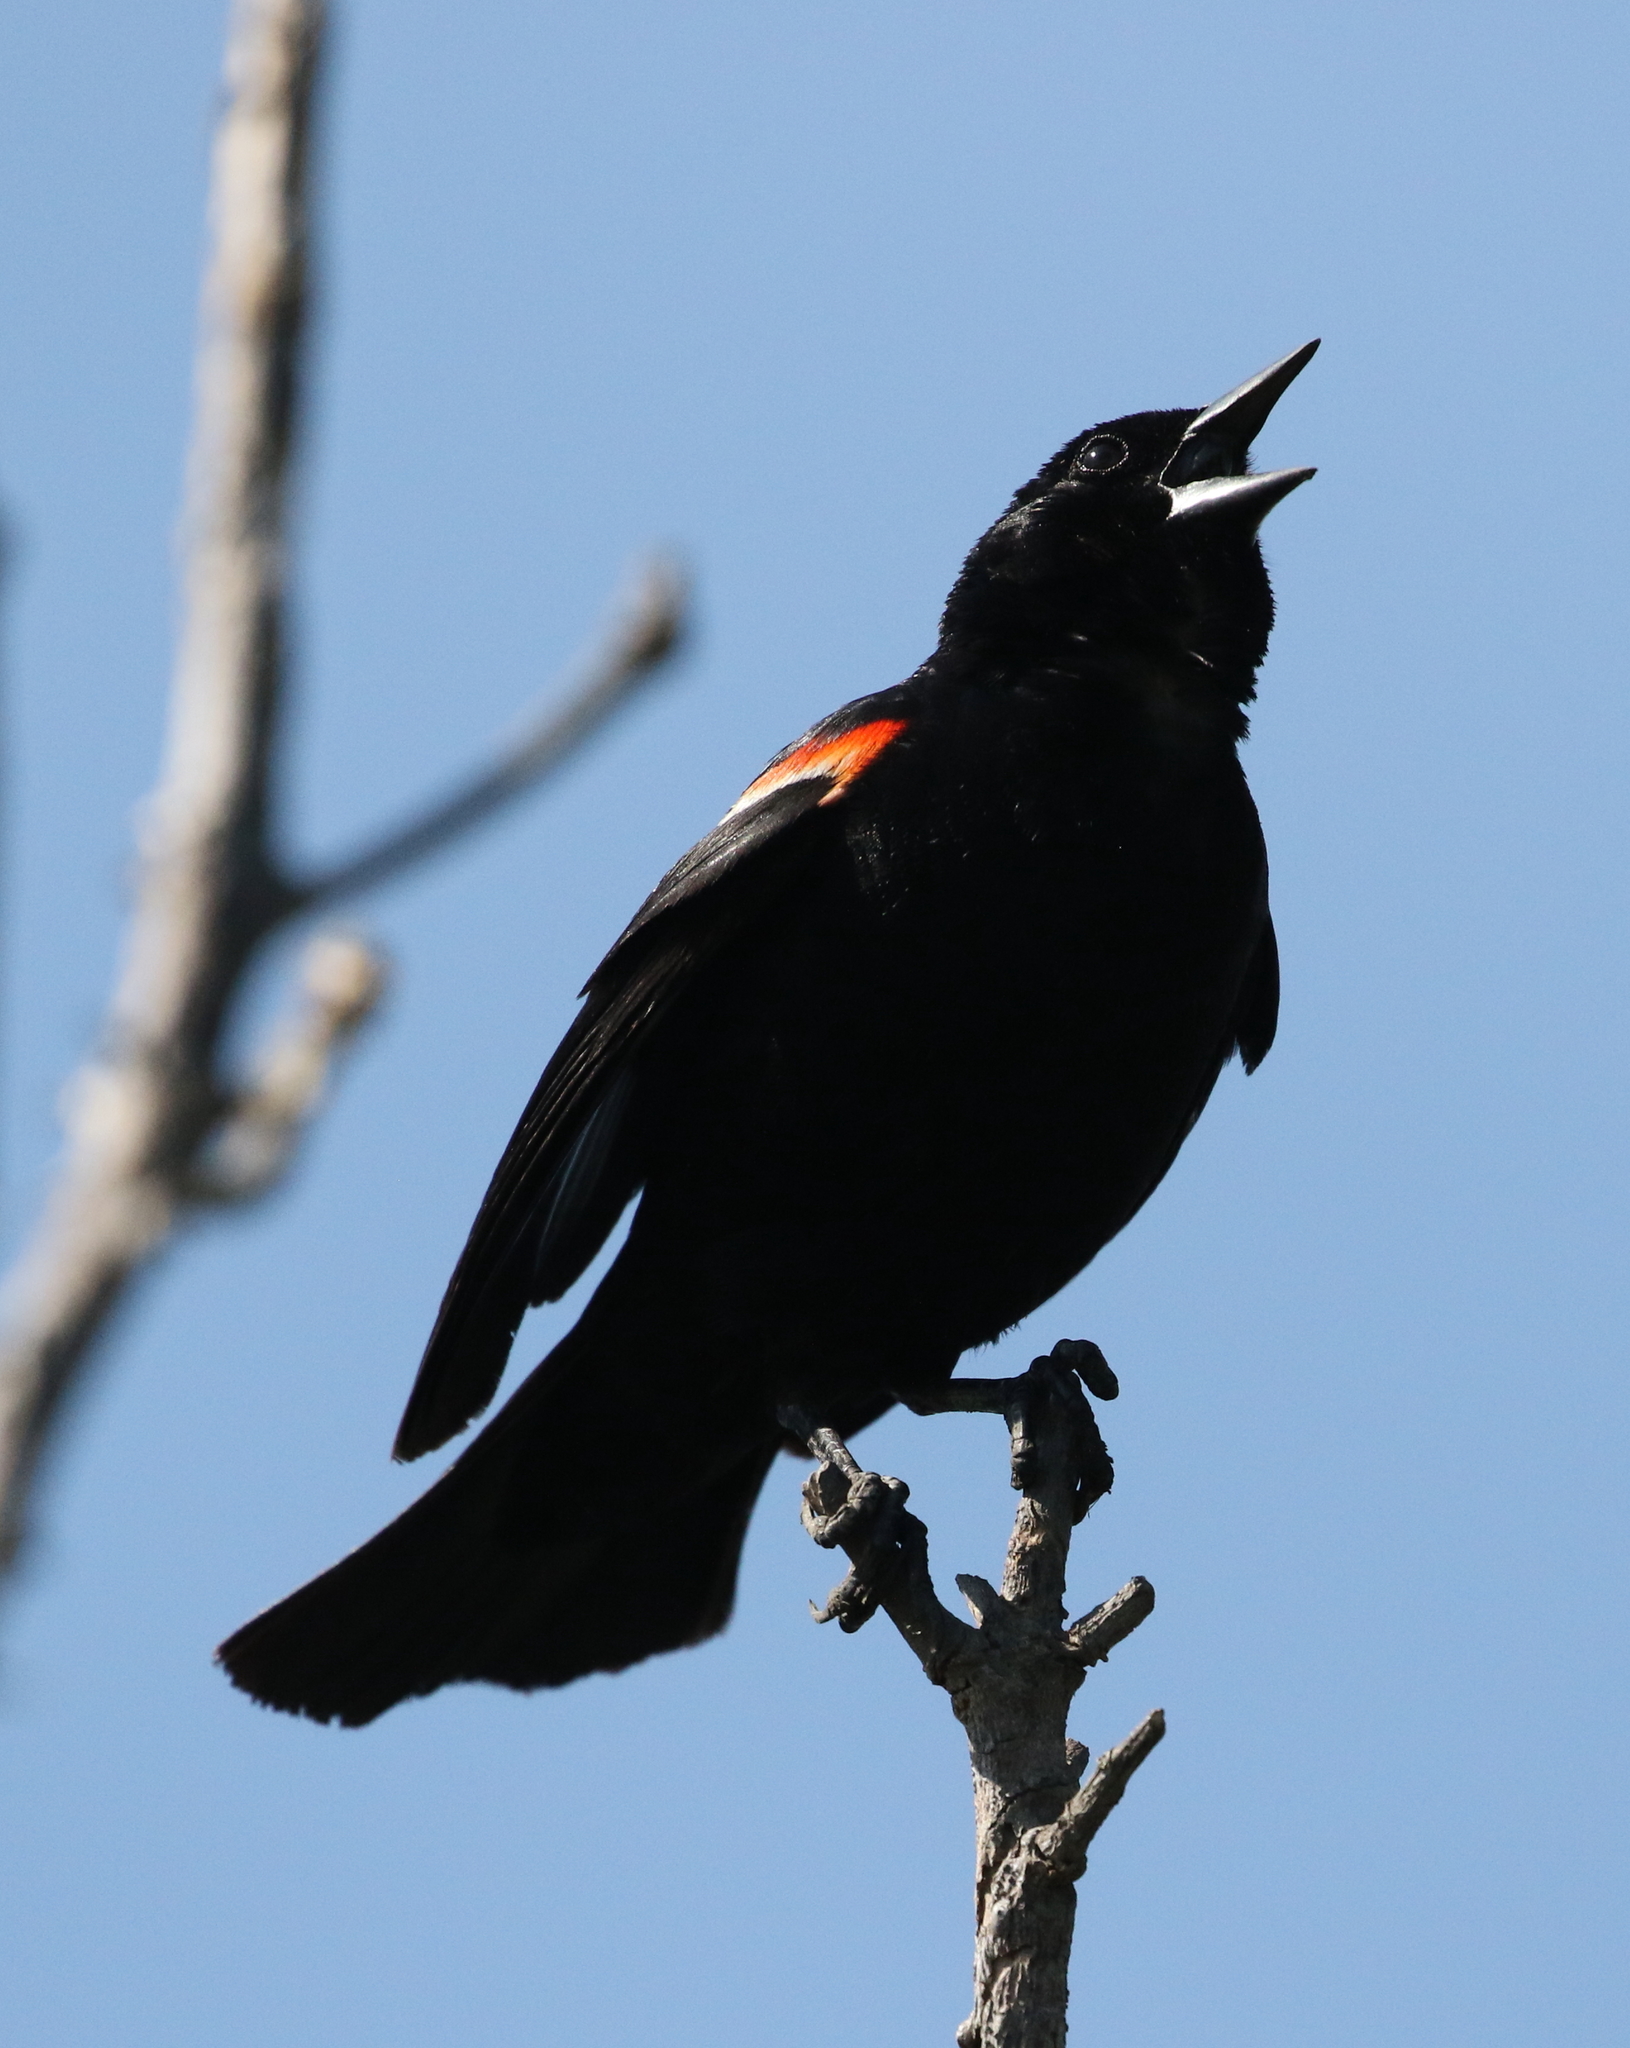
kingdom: Animalia
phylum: Chordata
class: Aves
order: Passeriformes
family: Icteridae
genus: Agelaius
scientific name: Agelaius phoeniceus
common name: Red-winged blackbird
